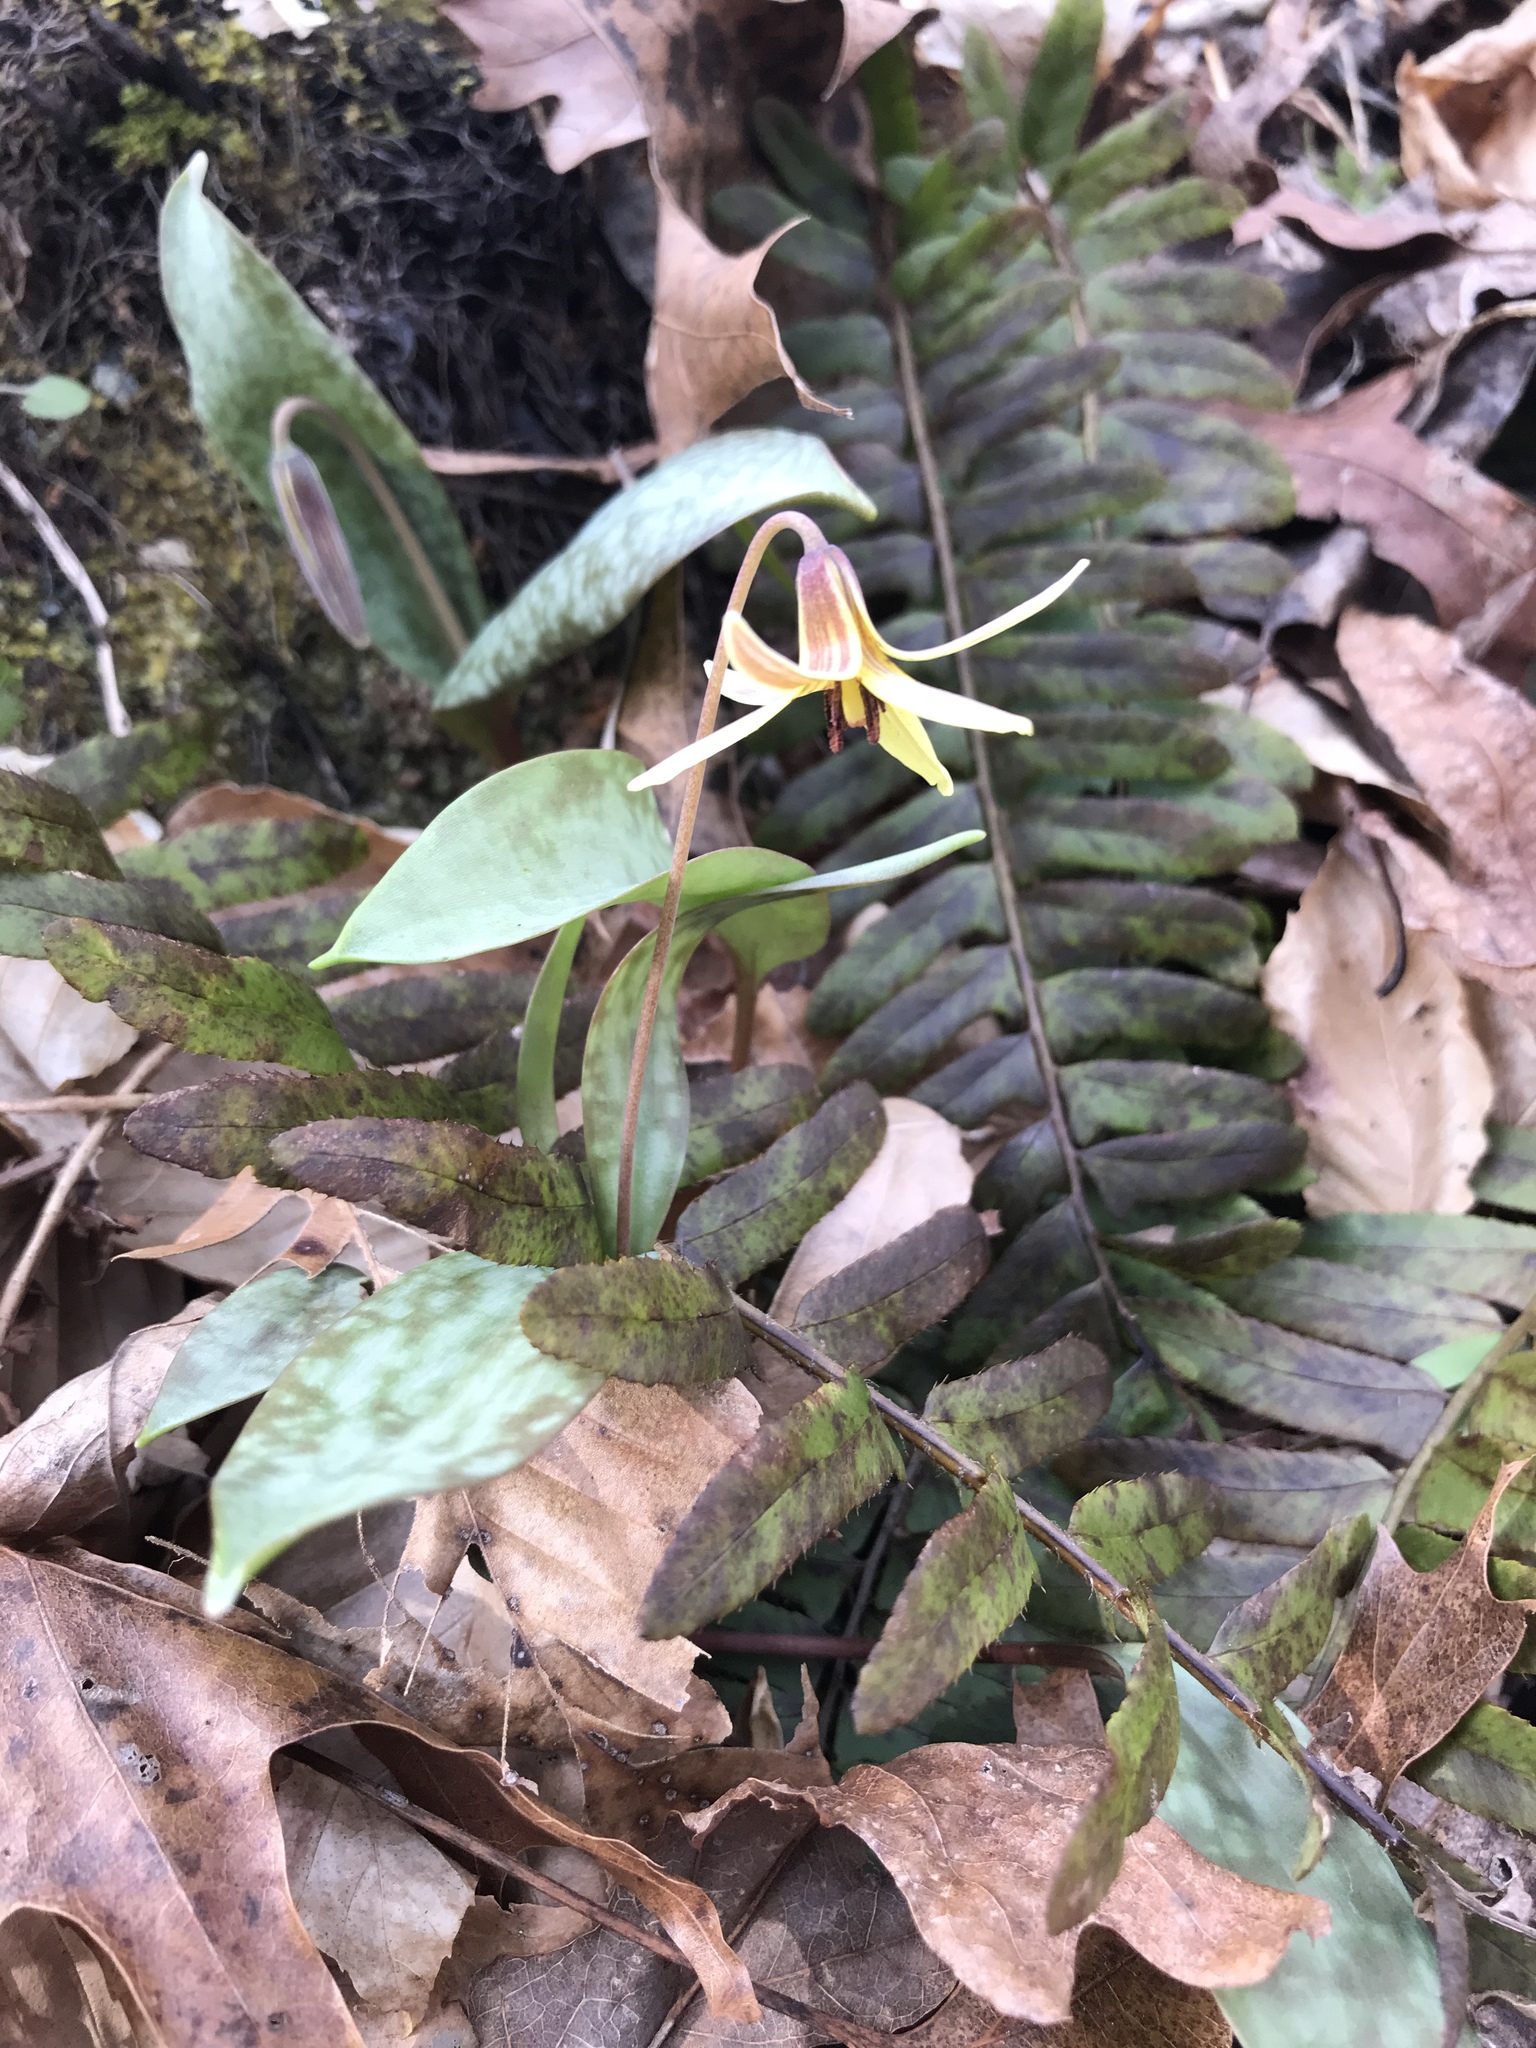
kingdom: Plantae
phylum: Tracheophyta
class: Liliopsida
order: Liliales
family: Liliaceae
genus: Erythronium
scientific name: Erythronium umbilicatum
